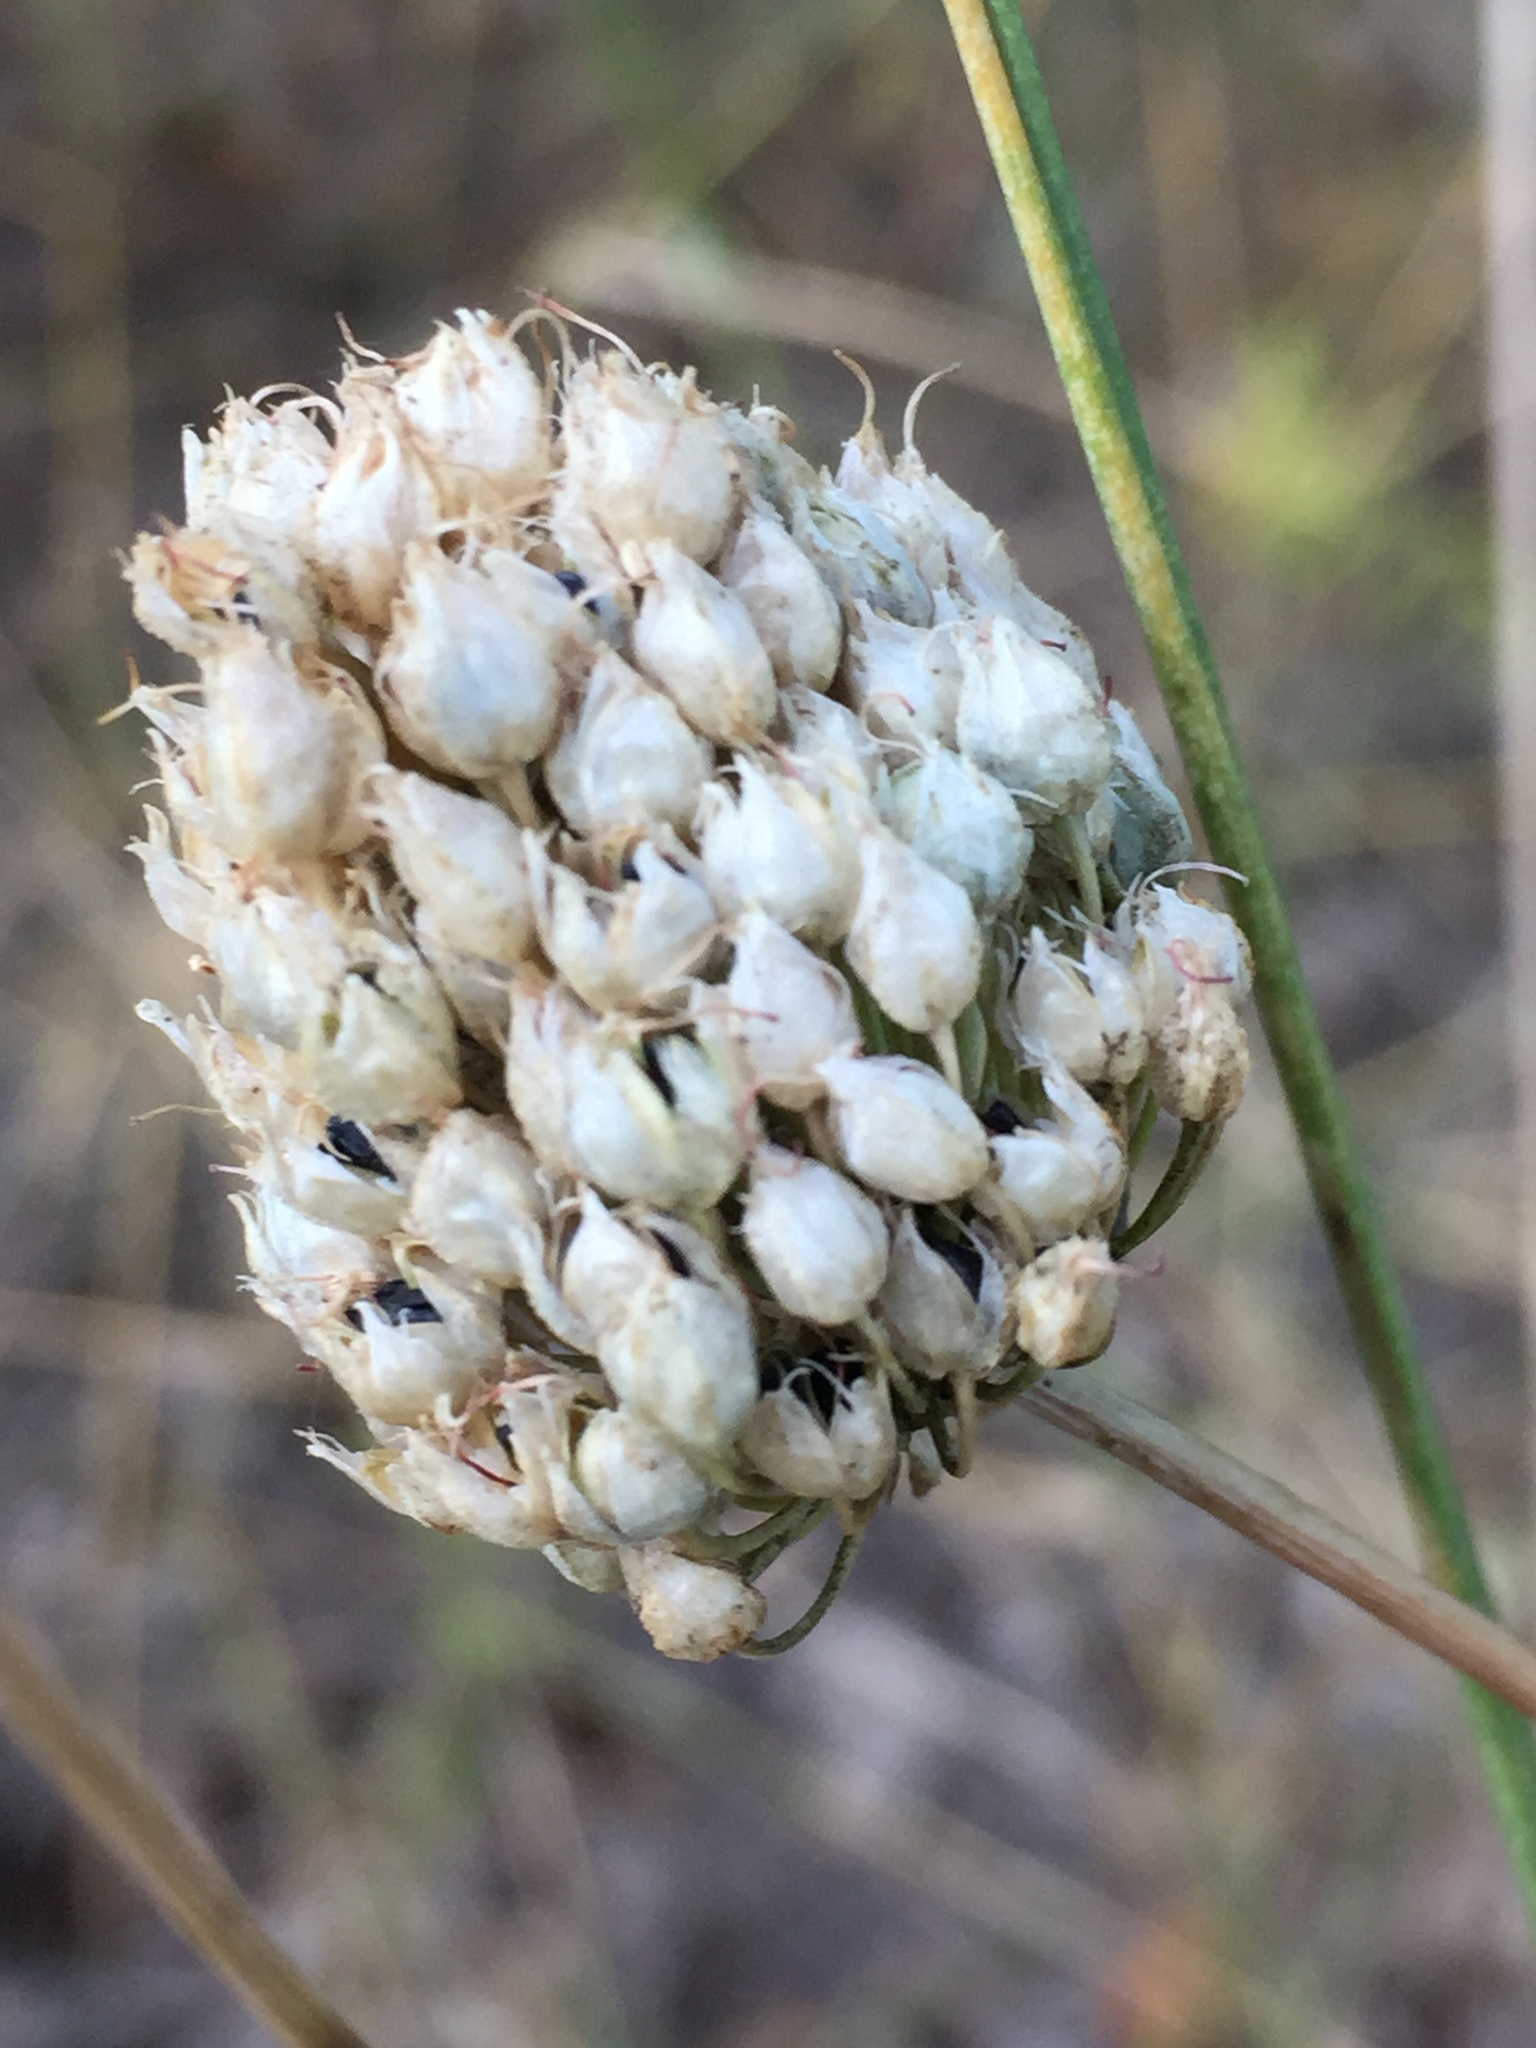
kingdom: Plantae
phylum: Tracheophyta
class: Liliopsida
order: Asparagales
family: Amaryllidaceae
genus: Allium
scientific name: Allium sphaerocephalon
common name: Round-headed leek
